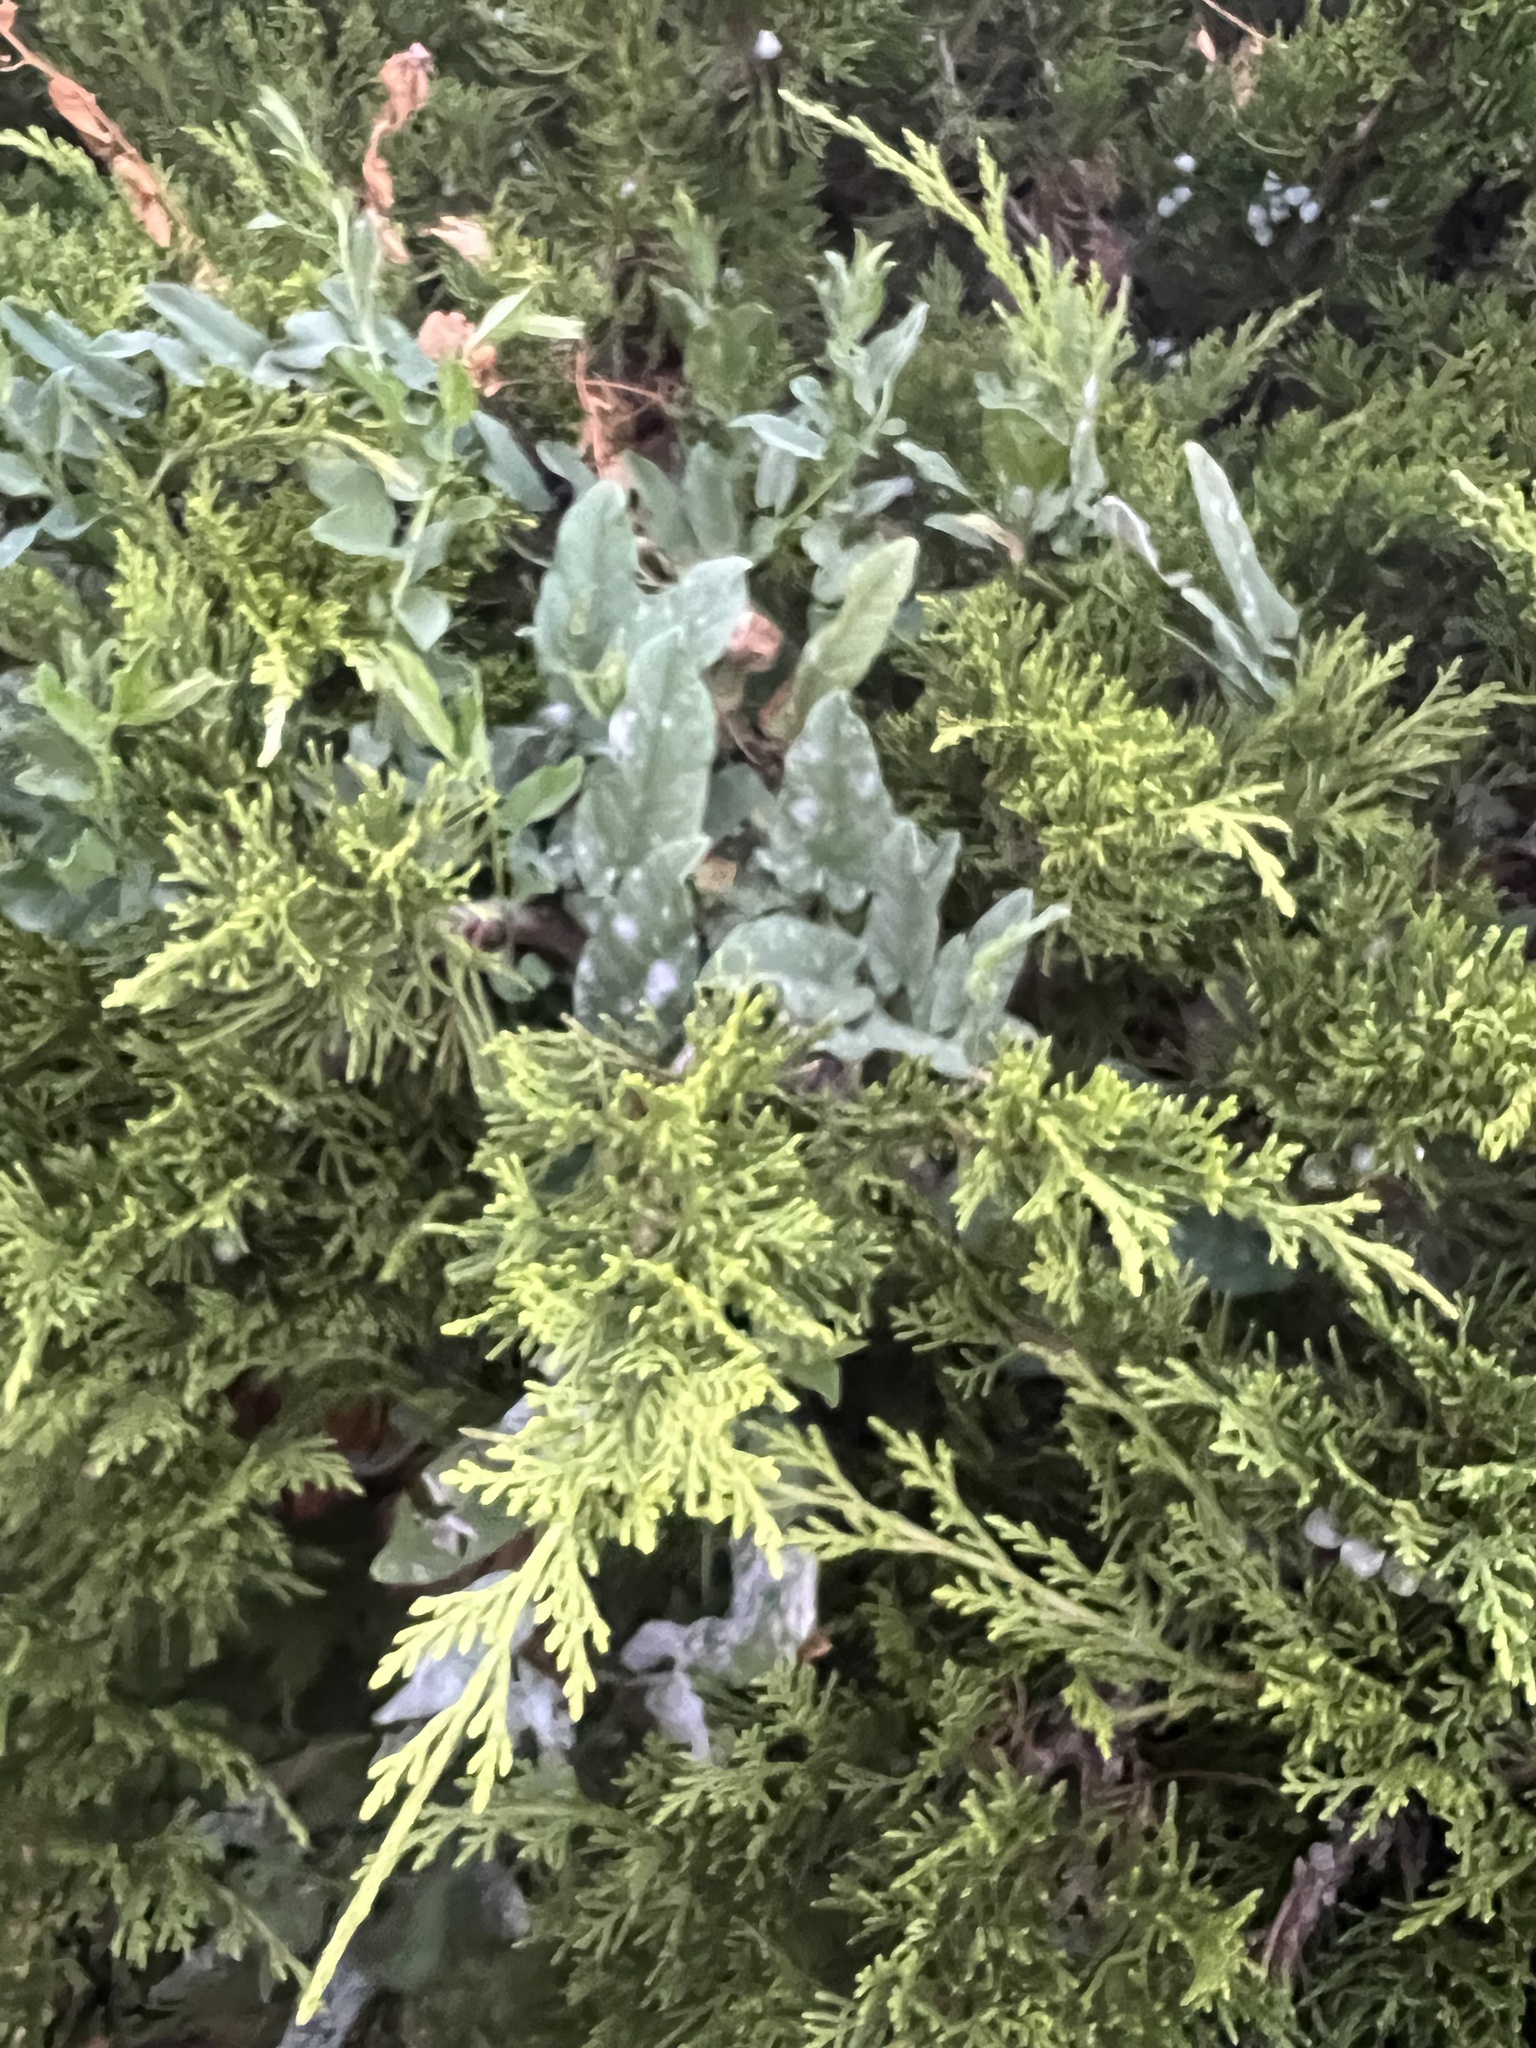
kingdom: Plantae
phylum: Tracheophyta
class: Magnoliopsida
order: Solanales
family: Convolvulaceae
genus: Convolvulus
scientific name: Convolvulus arvensis
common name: Field bindweed
